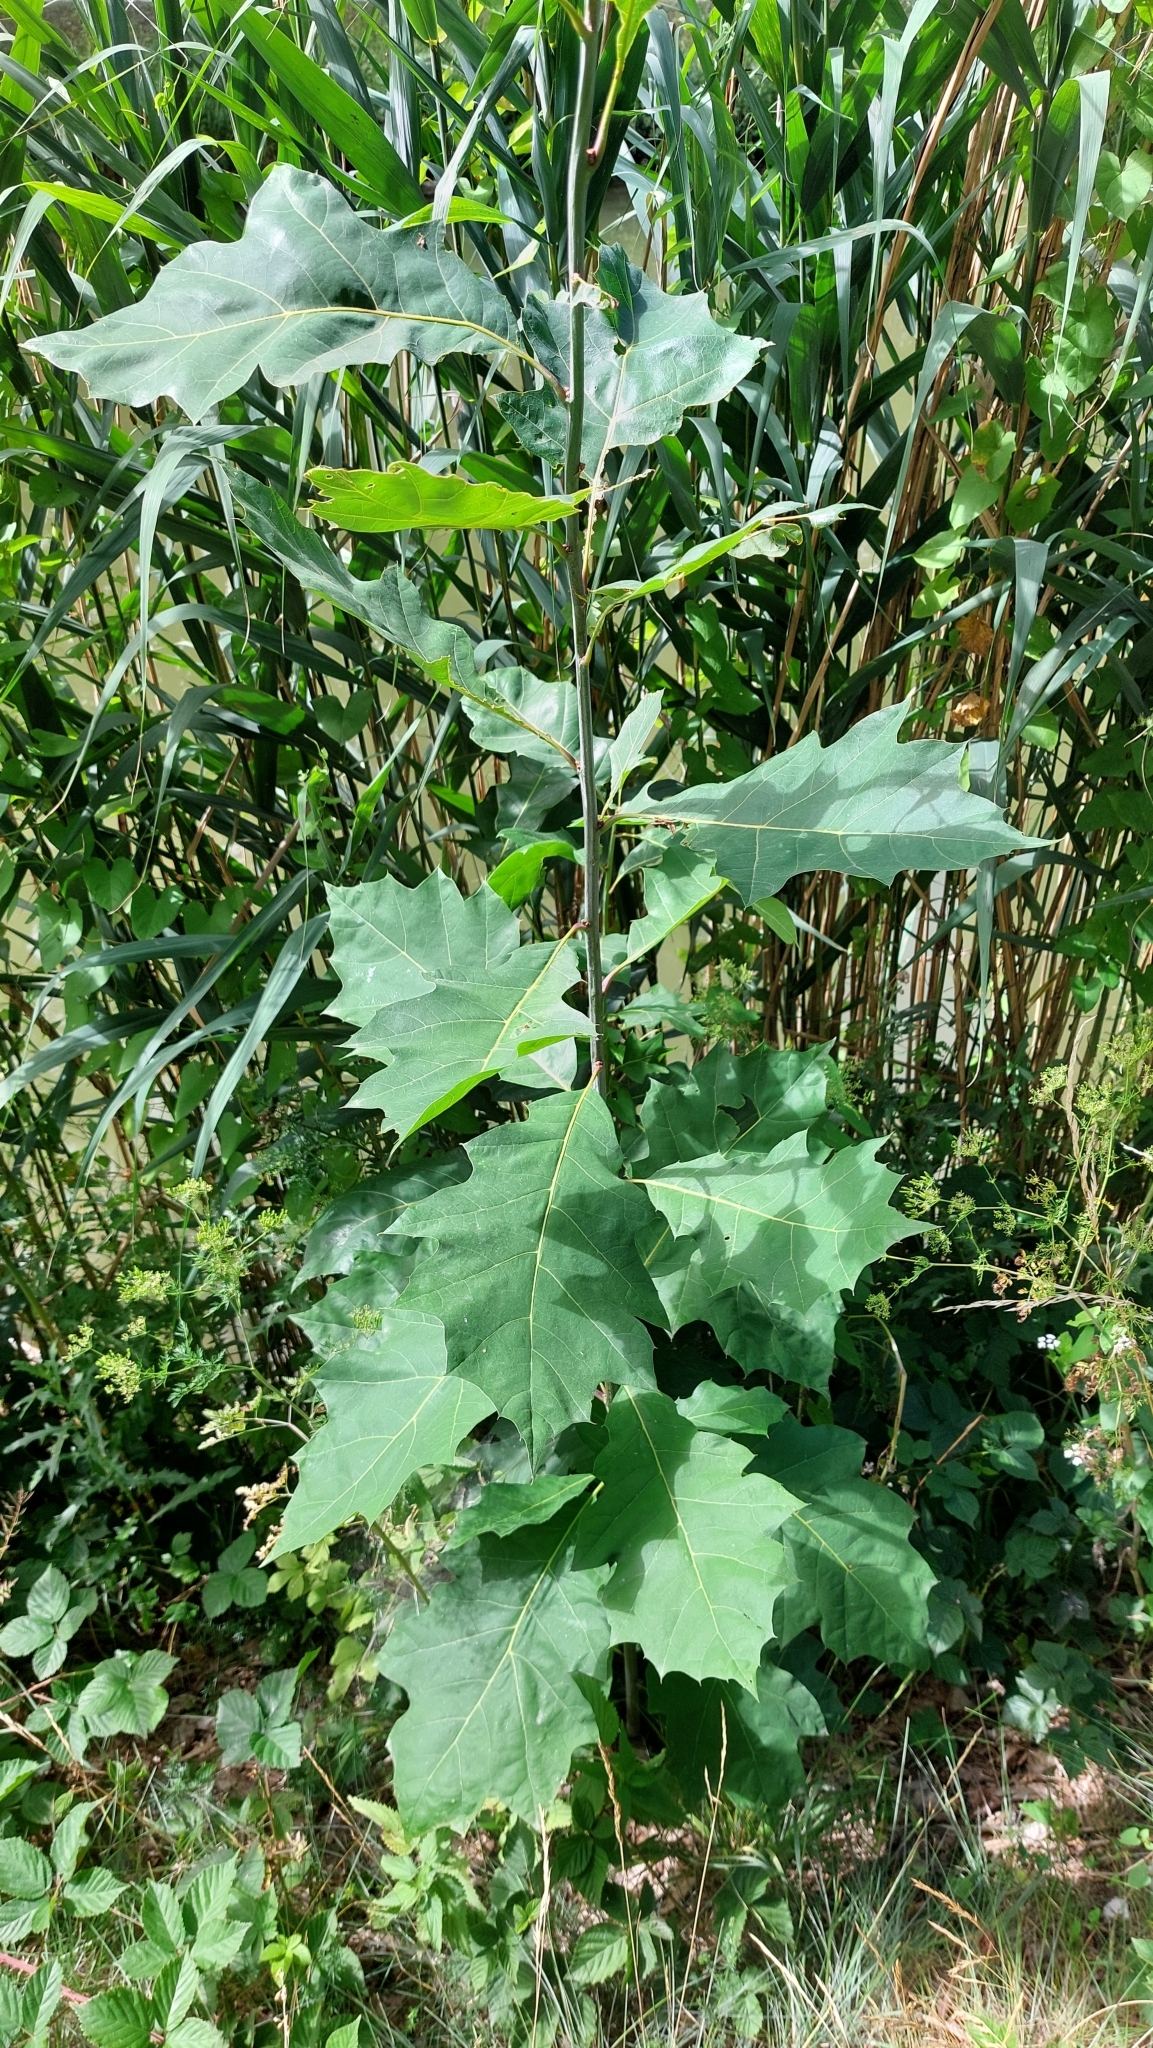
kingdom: Plantae
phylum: Tracheophyta
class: Magnoliopsida
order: Fagales
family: Fagaceae
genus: Quercus
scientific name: Quercus rubra
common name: Red oak
